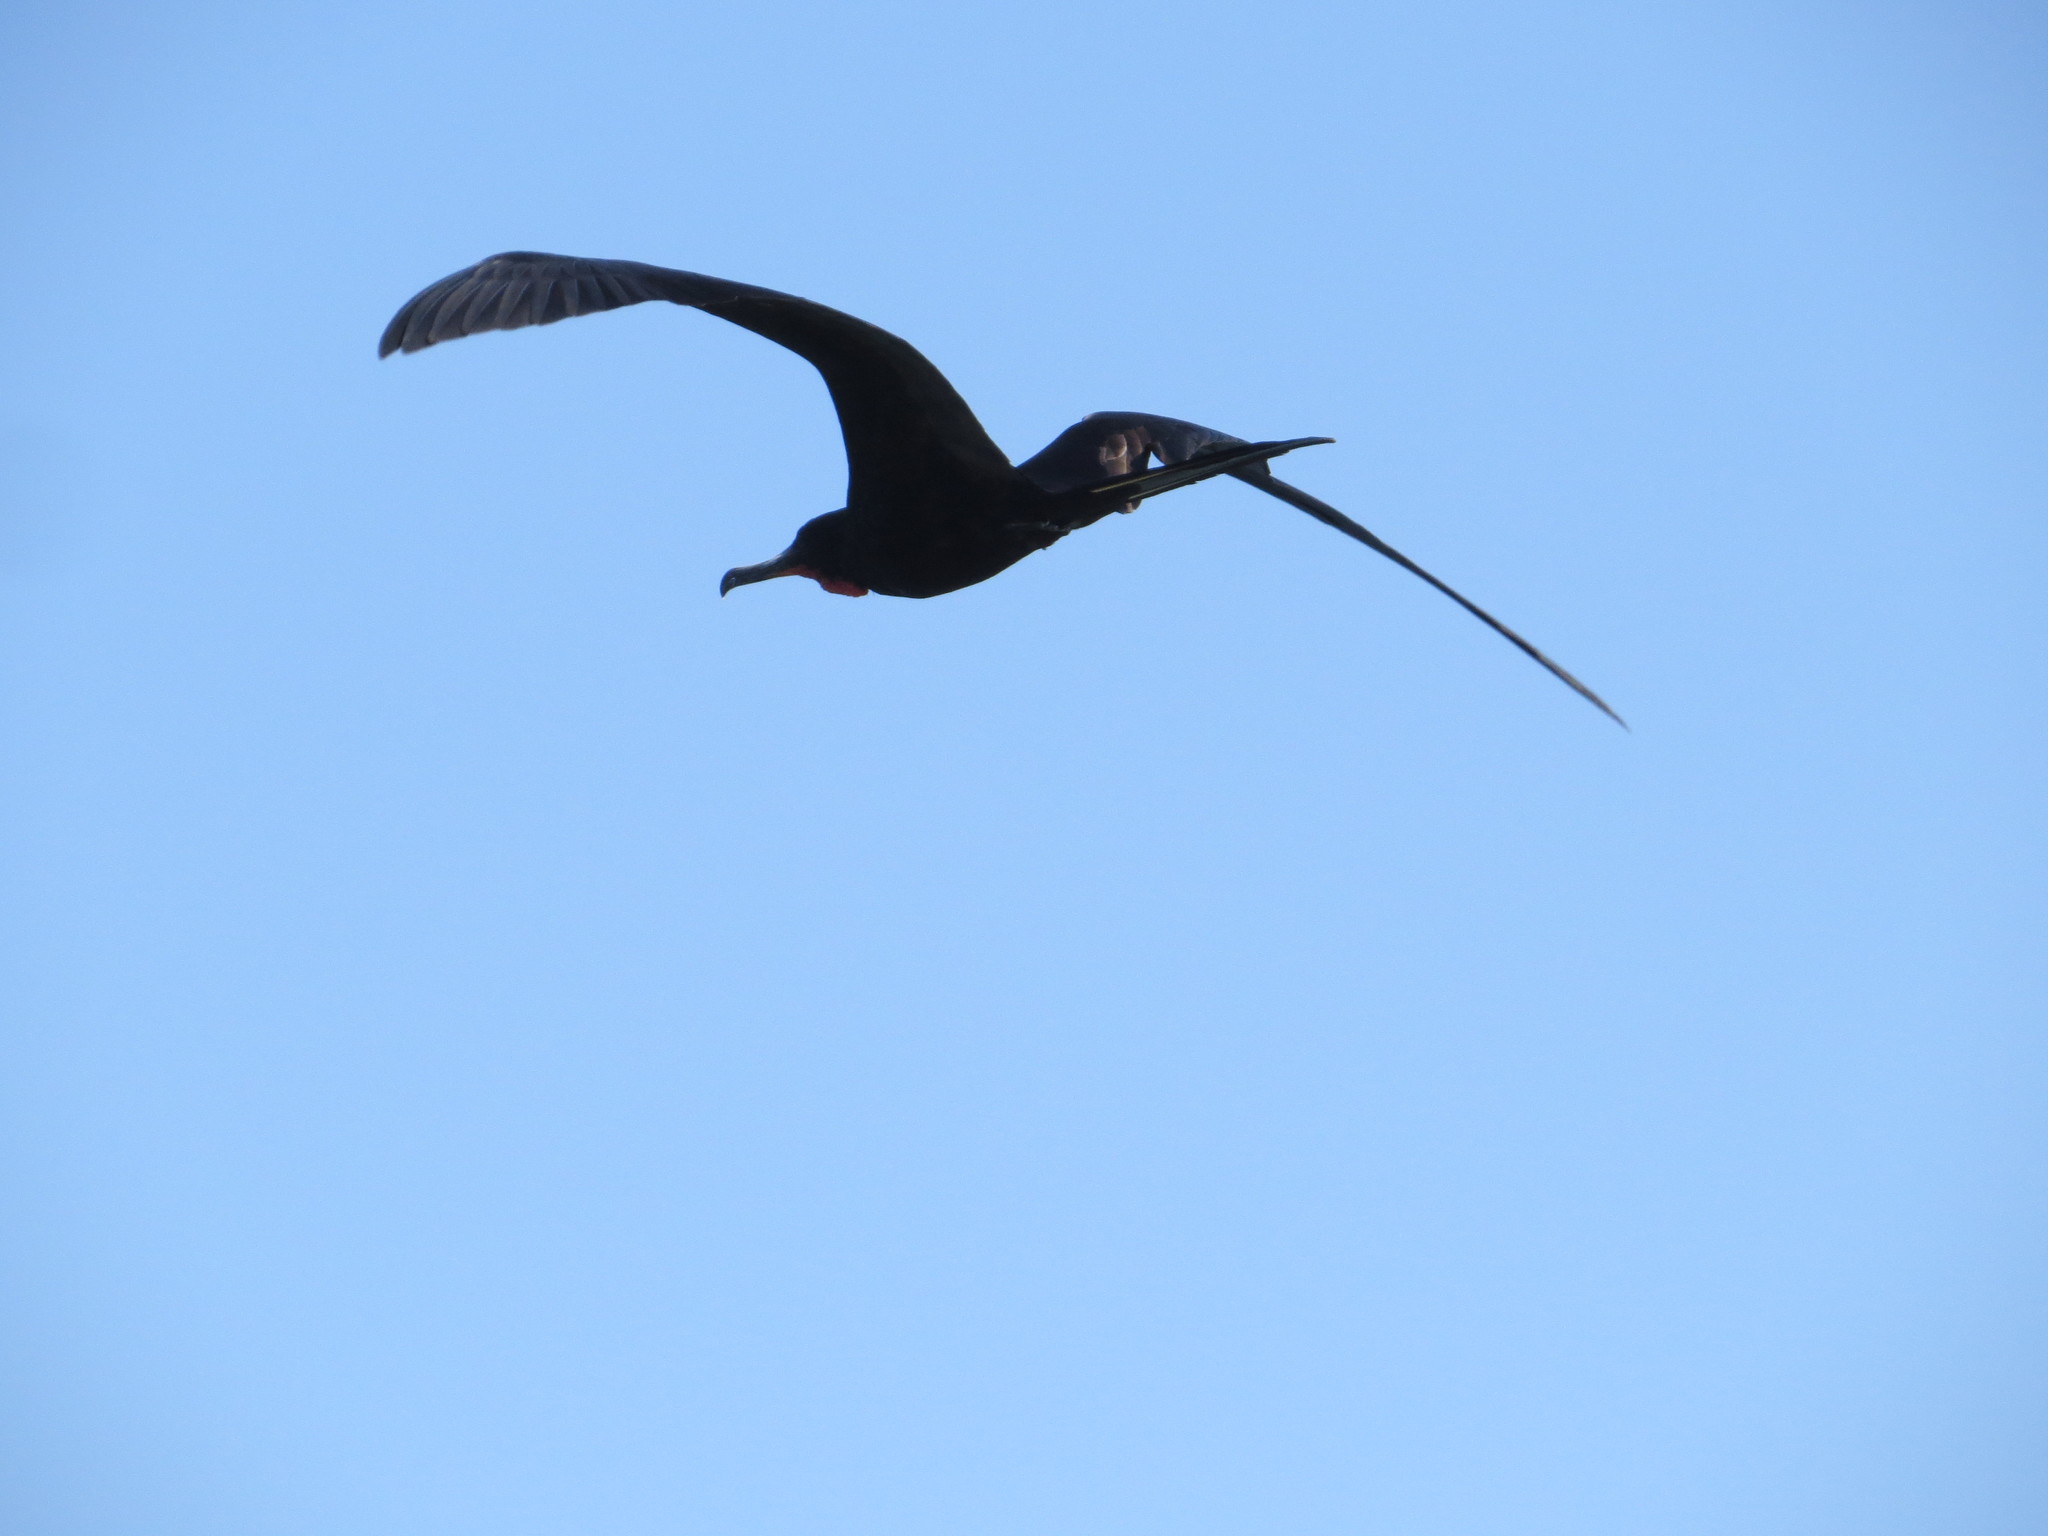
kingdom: Animalia
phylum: Chordata
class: Aves
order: Suliformes
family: Fregatidae
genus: Fregata
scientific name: Fregata magnificens
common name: Magnificent frigatebird
